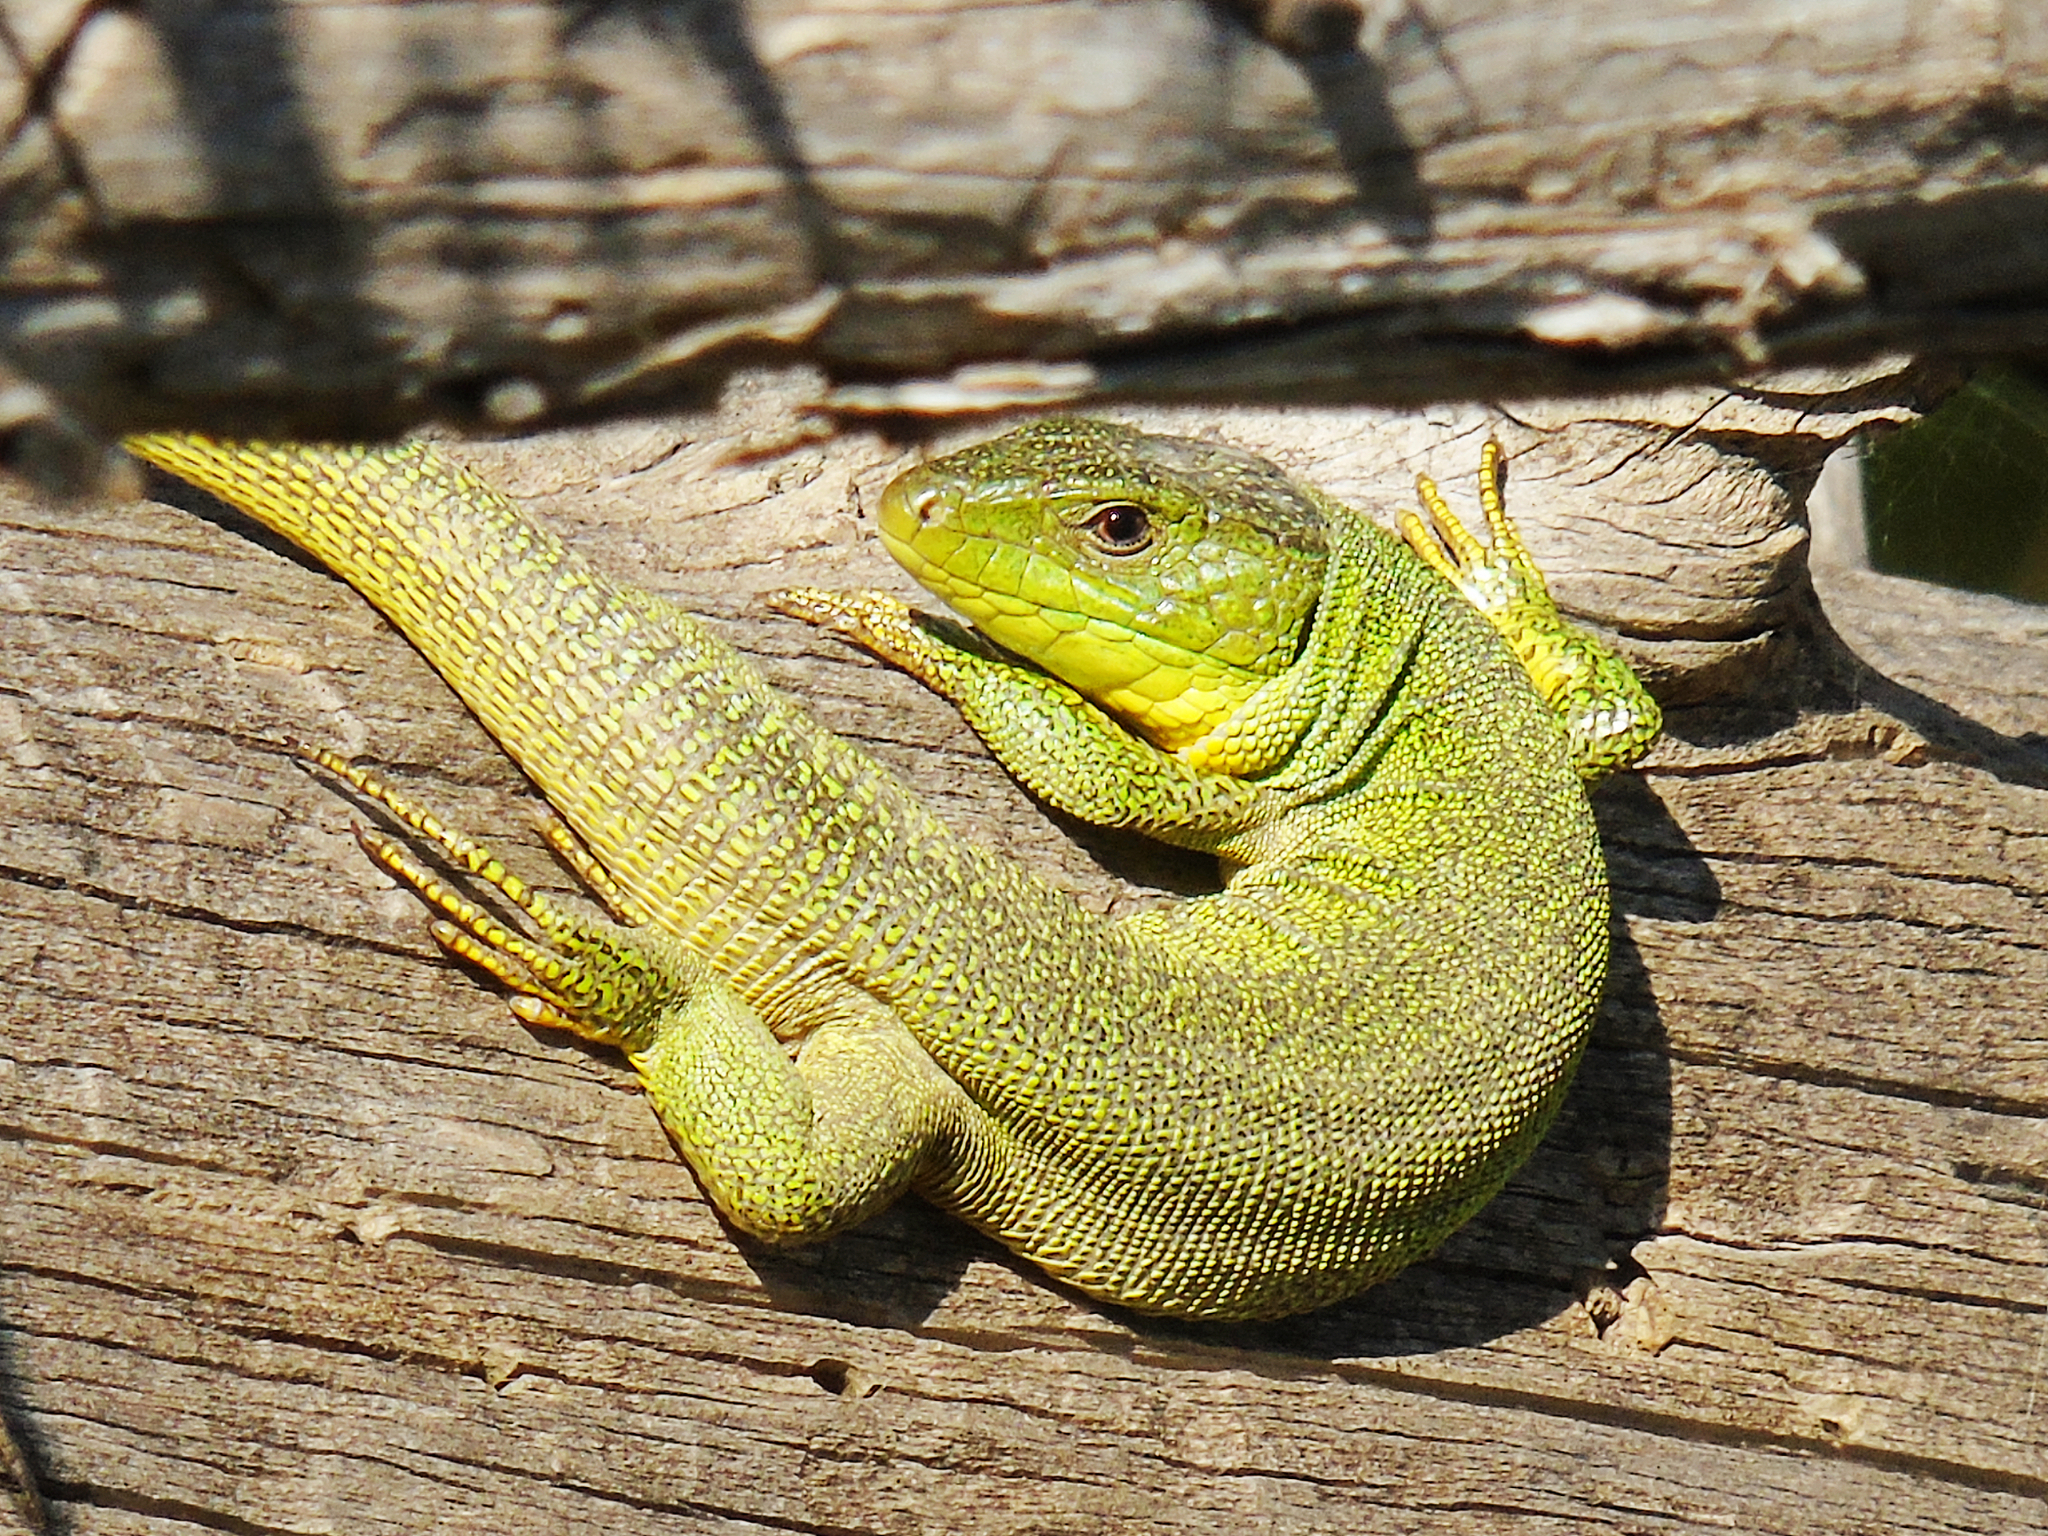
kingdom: Animalia
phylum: Chordata
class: Squamata
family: Lacertidae
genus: Lacerta
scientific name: Lacerta trilineata
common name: Balkan green lizard
